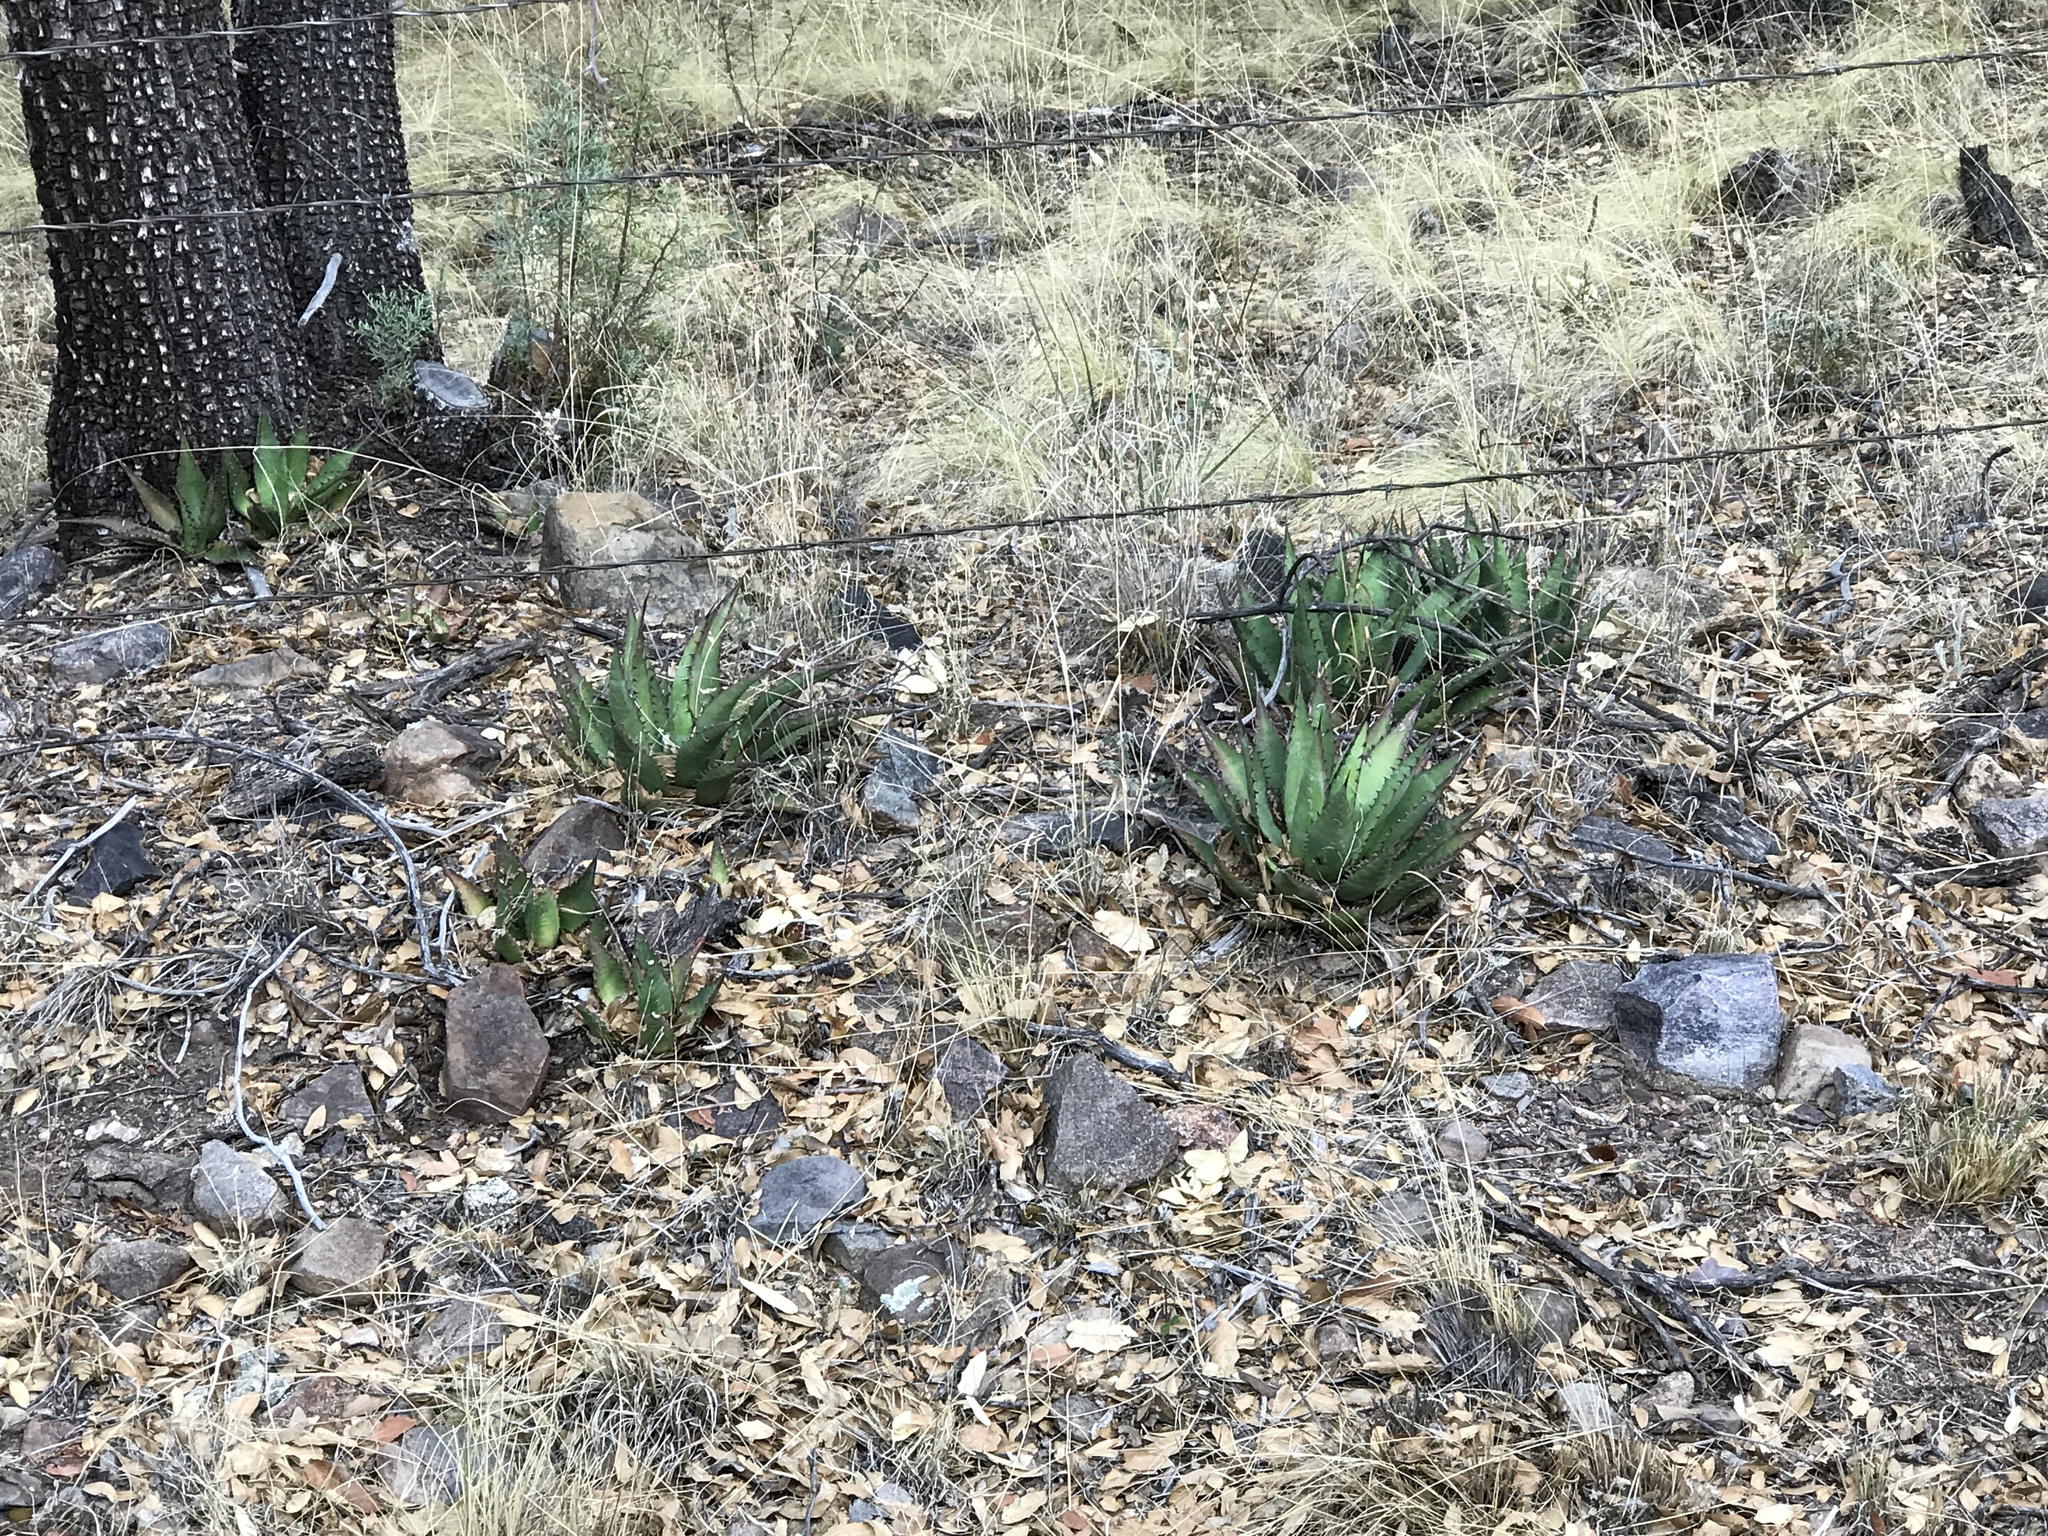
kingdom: Plantae
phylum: Tracheophyta
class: Liliopsida
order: Asparagales
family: Asparagaceae
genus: Agave
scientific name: Agave shrevei
